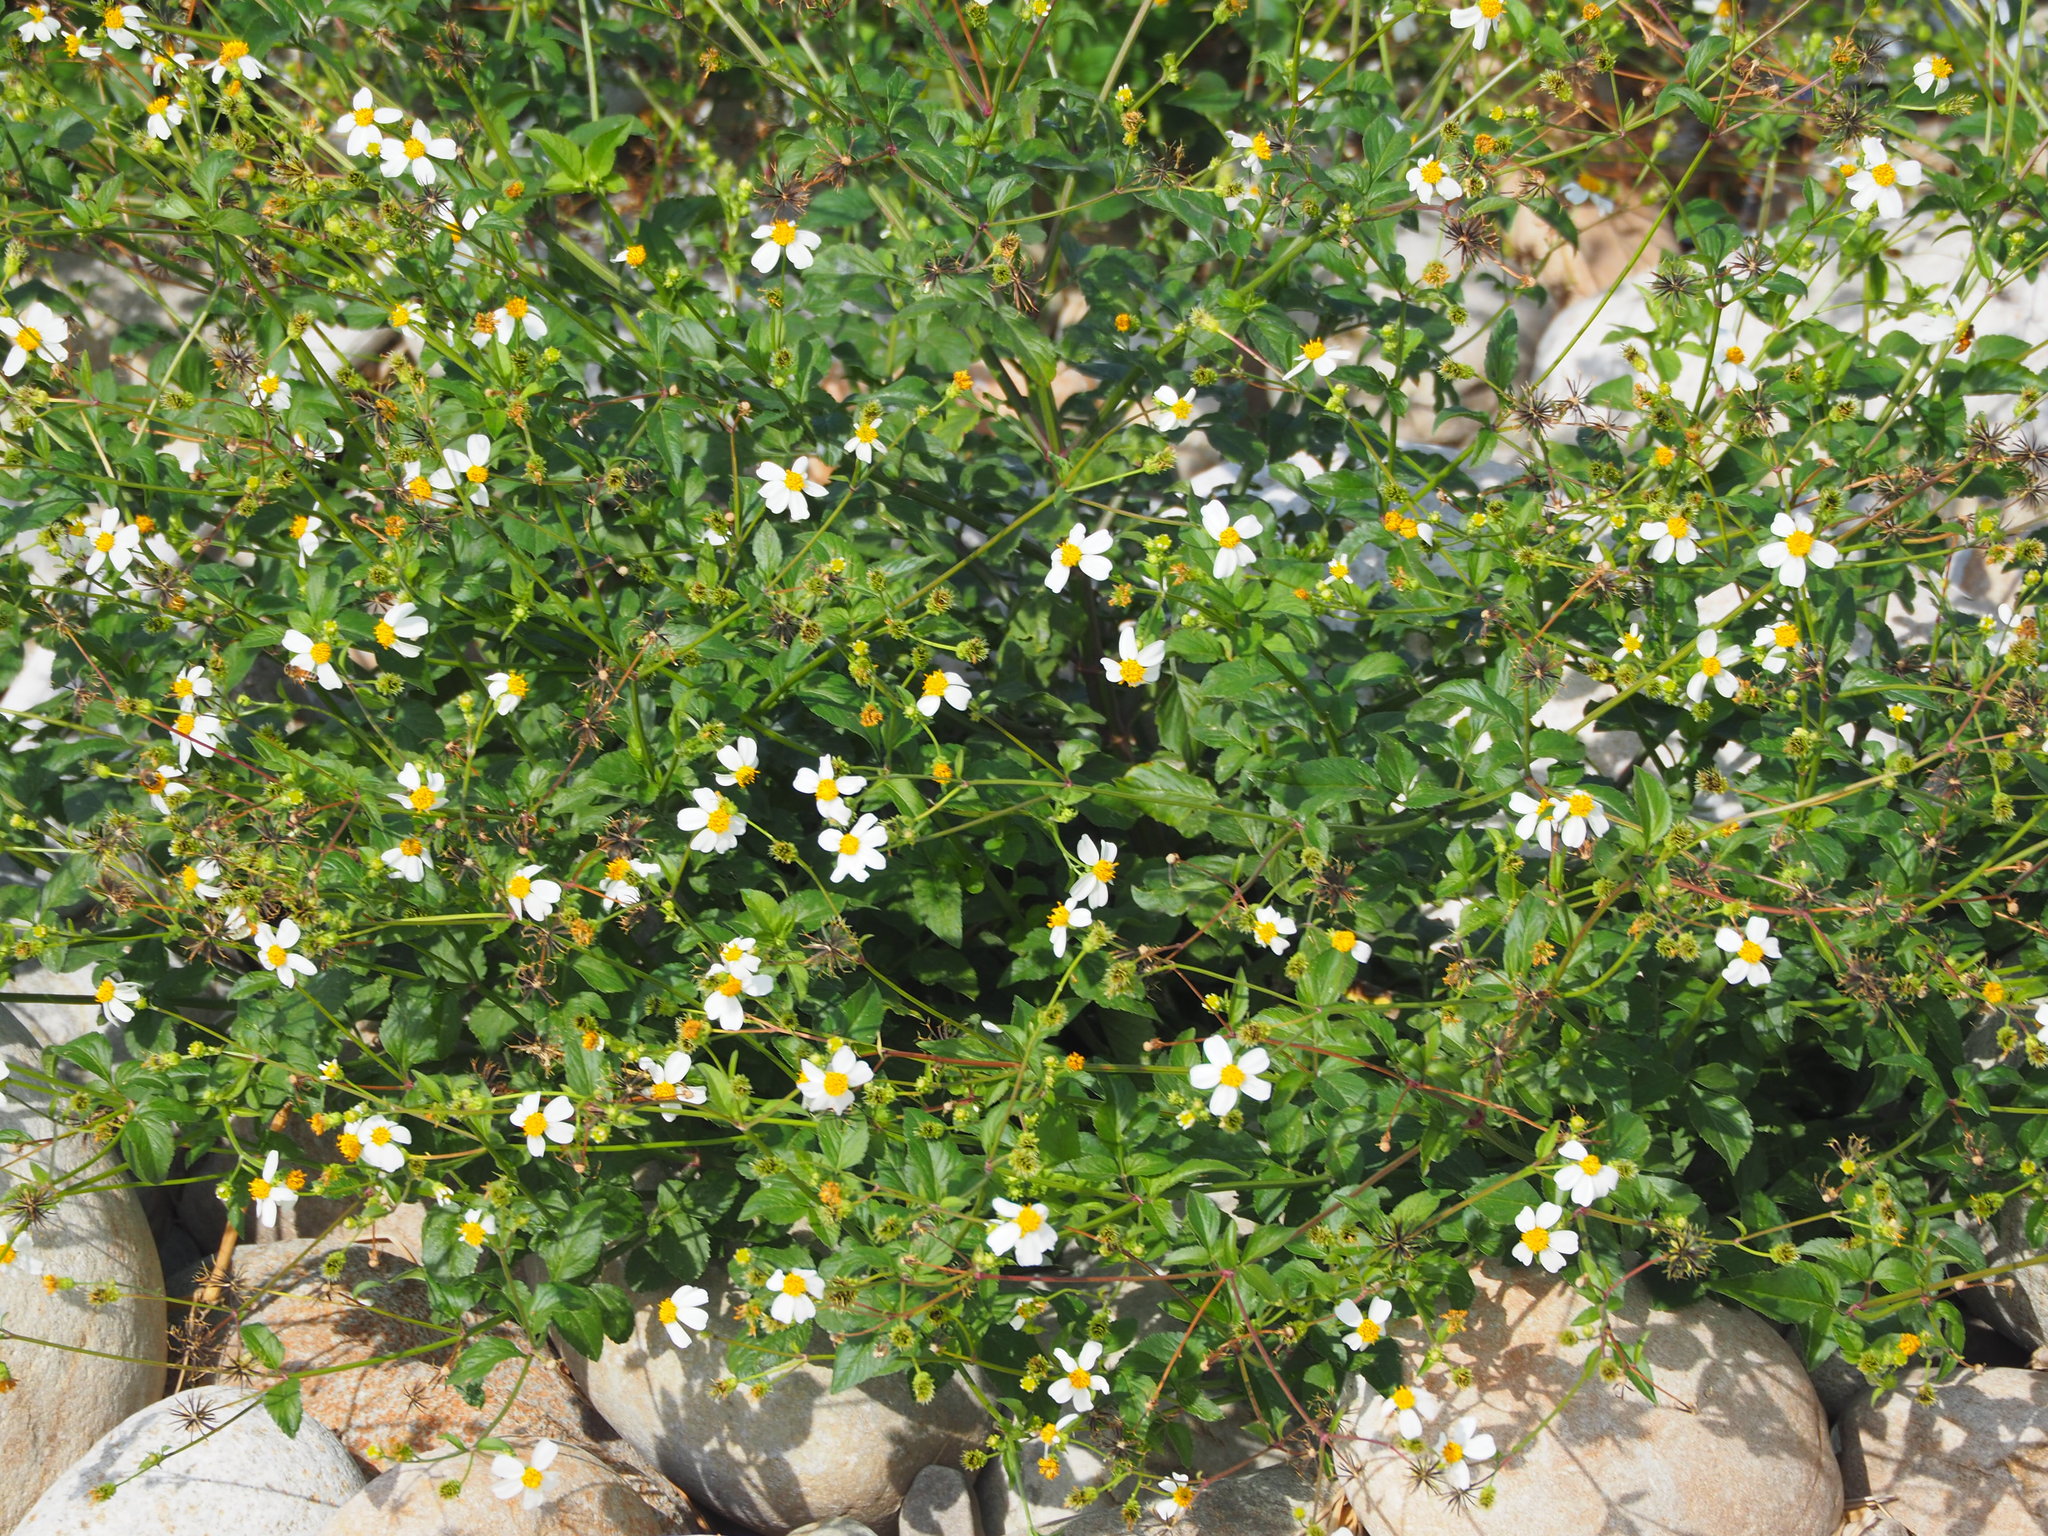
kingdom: Plantae
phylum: Tracheophyta
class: Magnoliopsida
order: Asterales
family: Asteraceae
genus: Bidens
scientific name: Bidens alba
